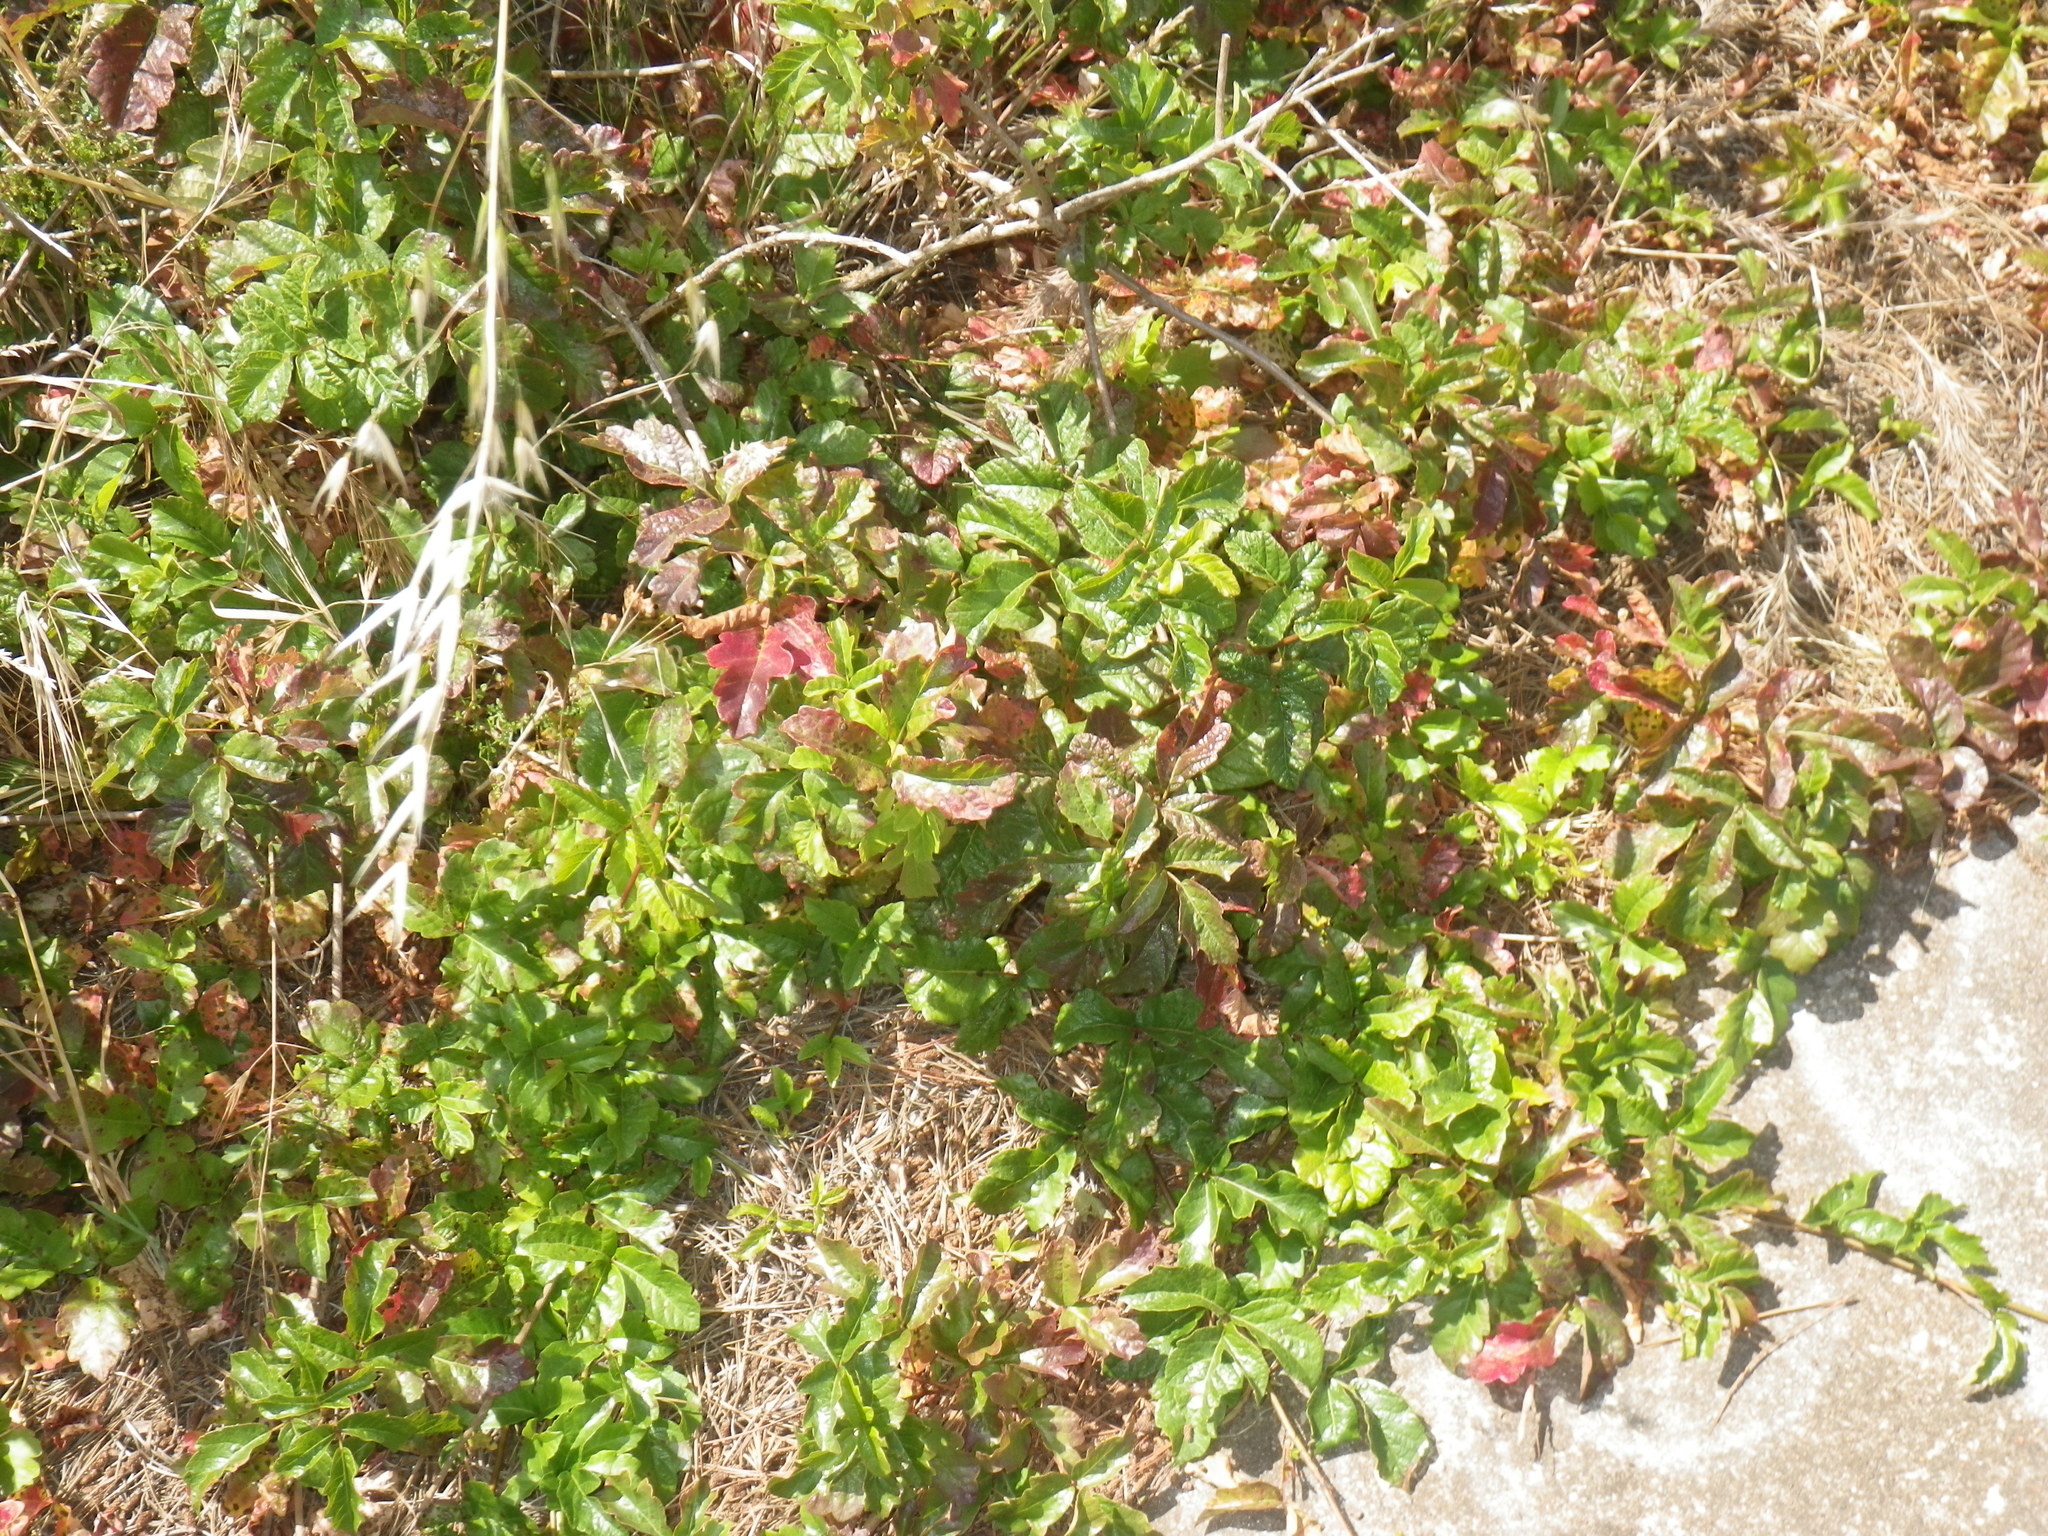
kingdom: Plantae
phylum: Tracheophyta
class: Magnoliopsida
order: Sapindales
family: Anacardiaceae
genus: Toxicodendron
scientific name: Toxicodendron diversilobum
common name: Pacific poison-oak
